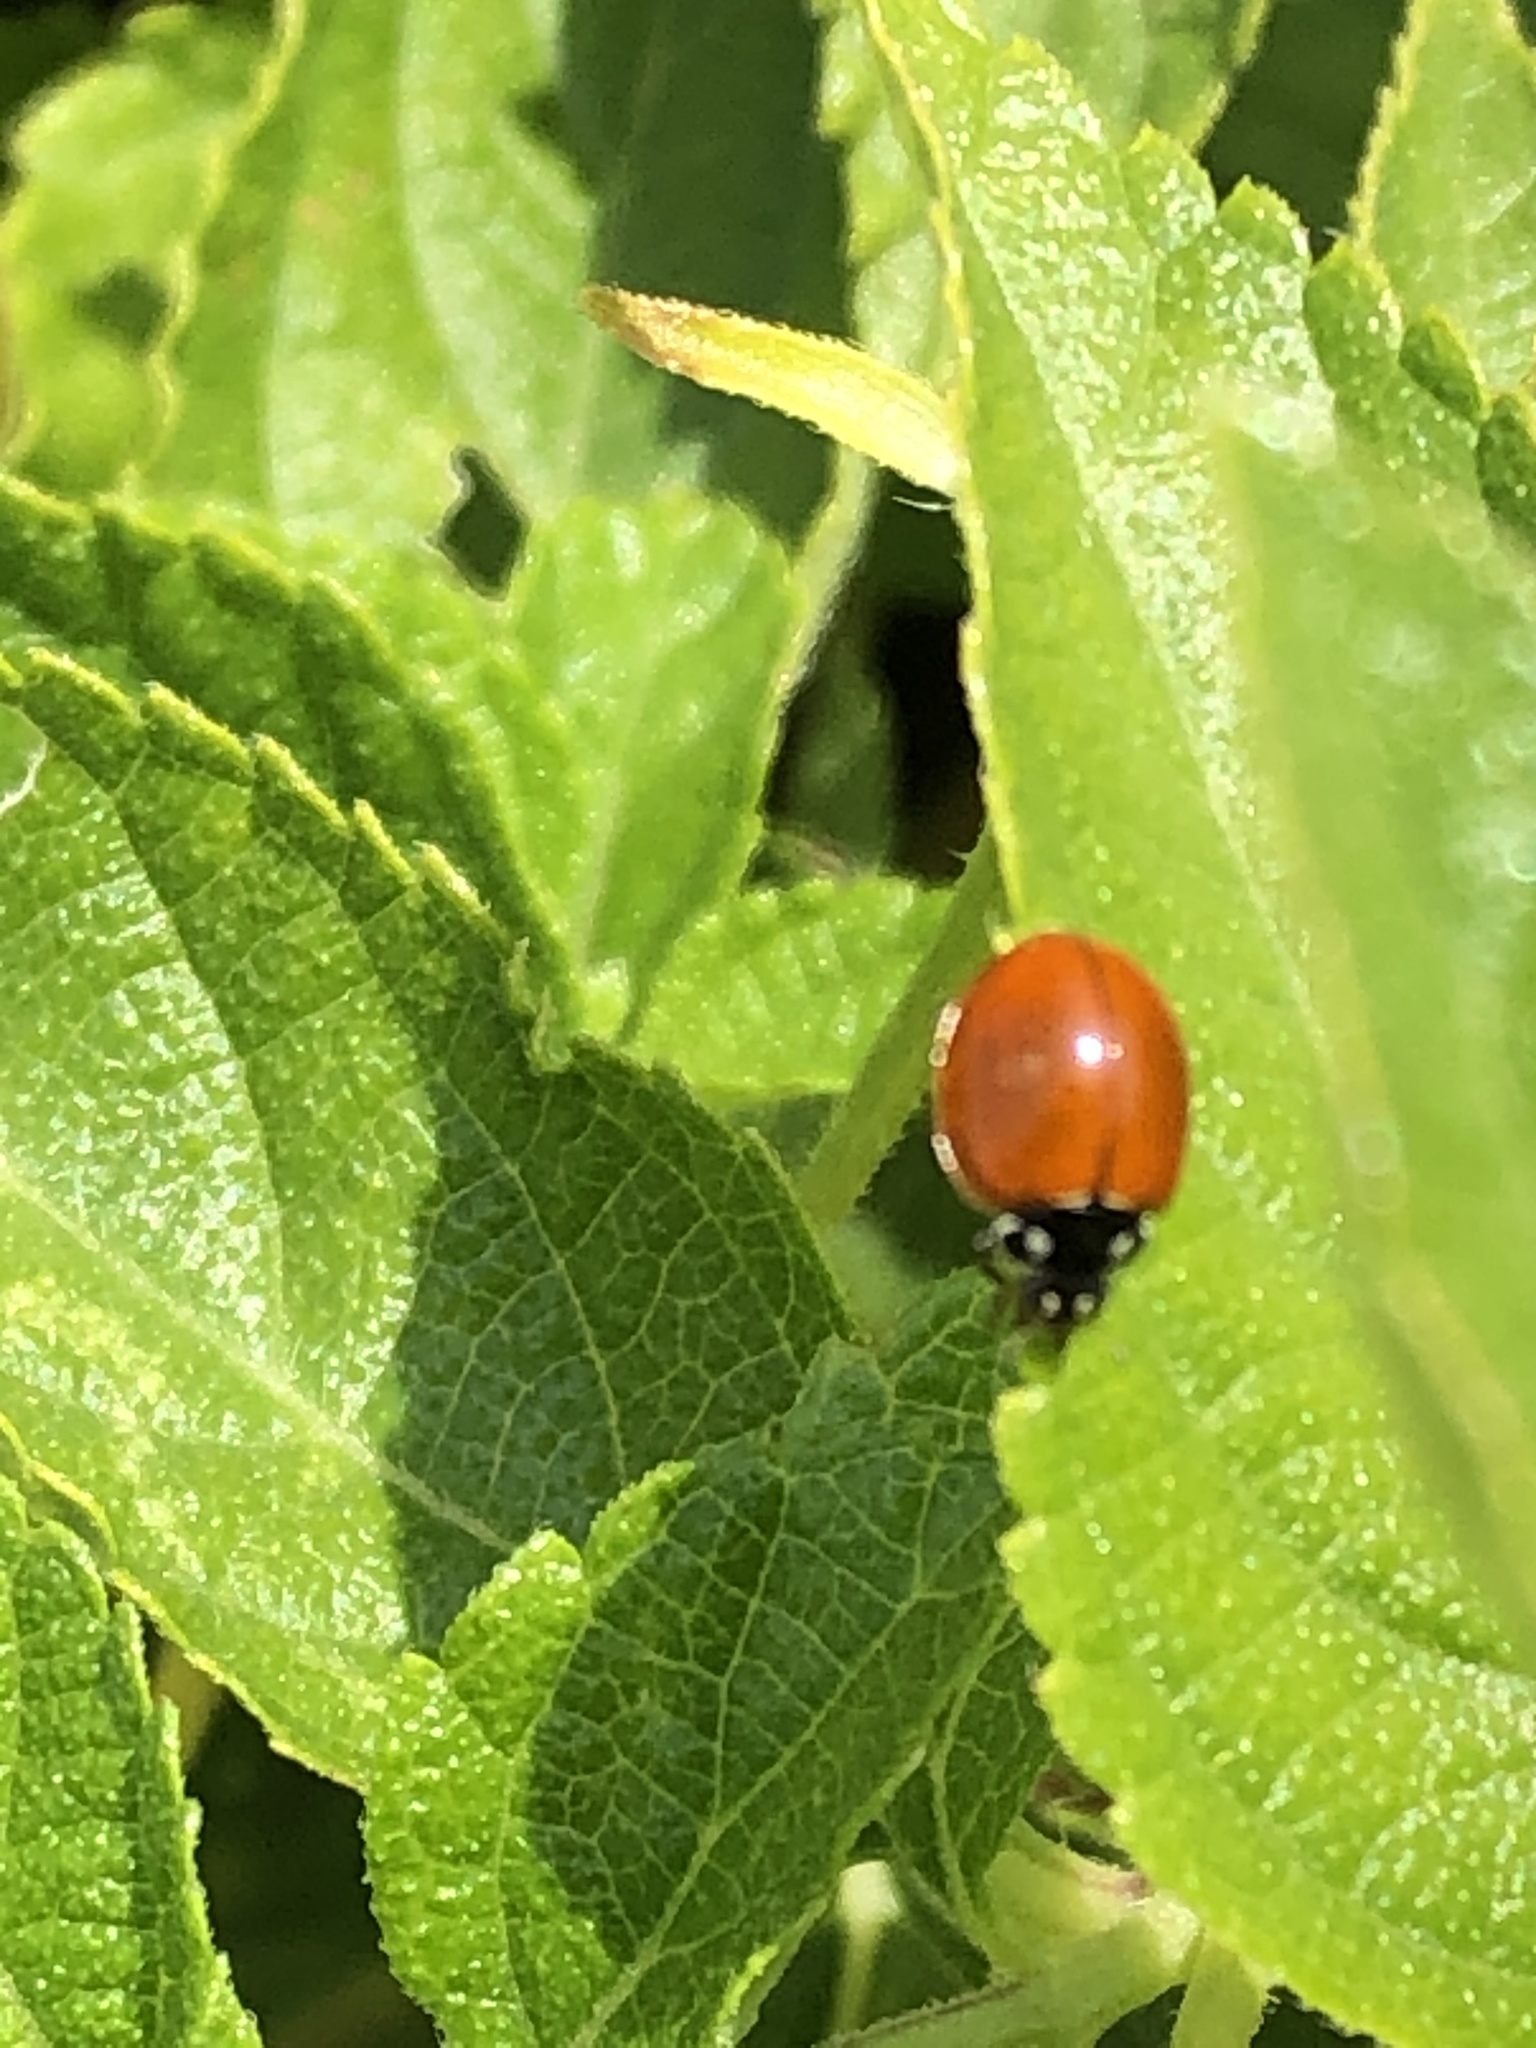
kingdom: Animalia
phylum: Arthropoda
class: Insecta
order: Coleoptera
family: Coccinellidae
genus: Cycloneda
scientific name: Cycloneda sanguinea
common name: Ladybird beetle
